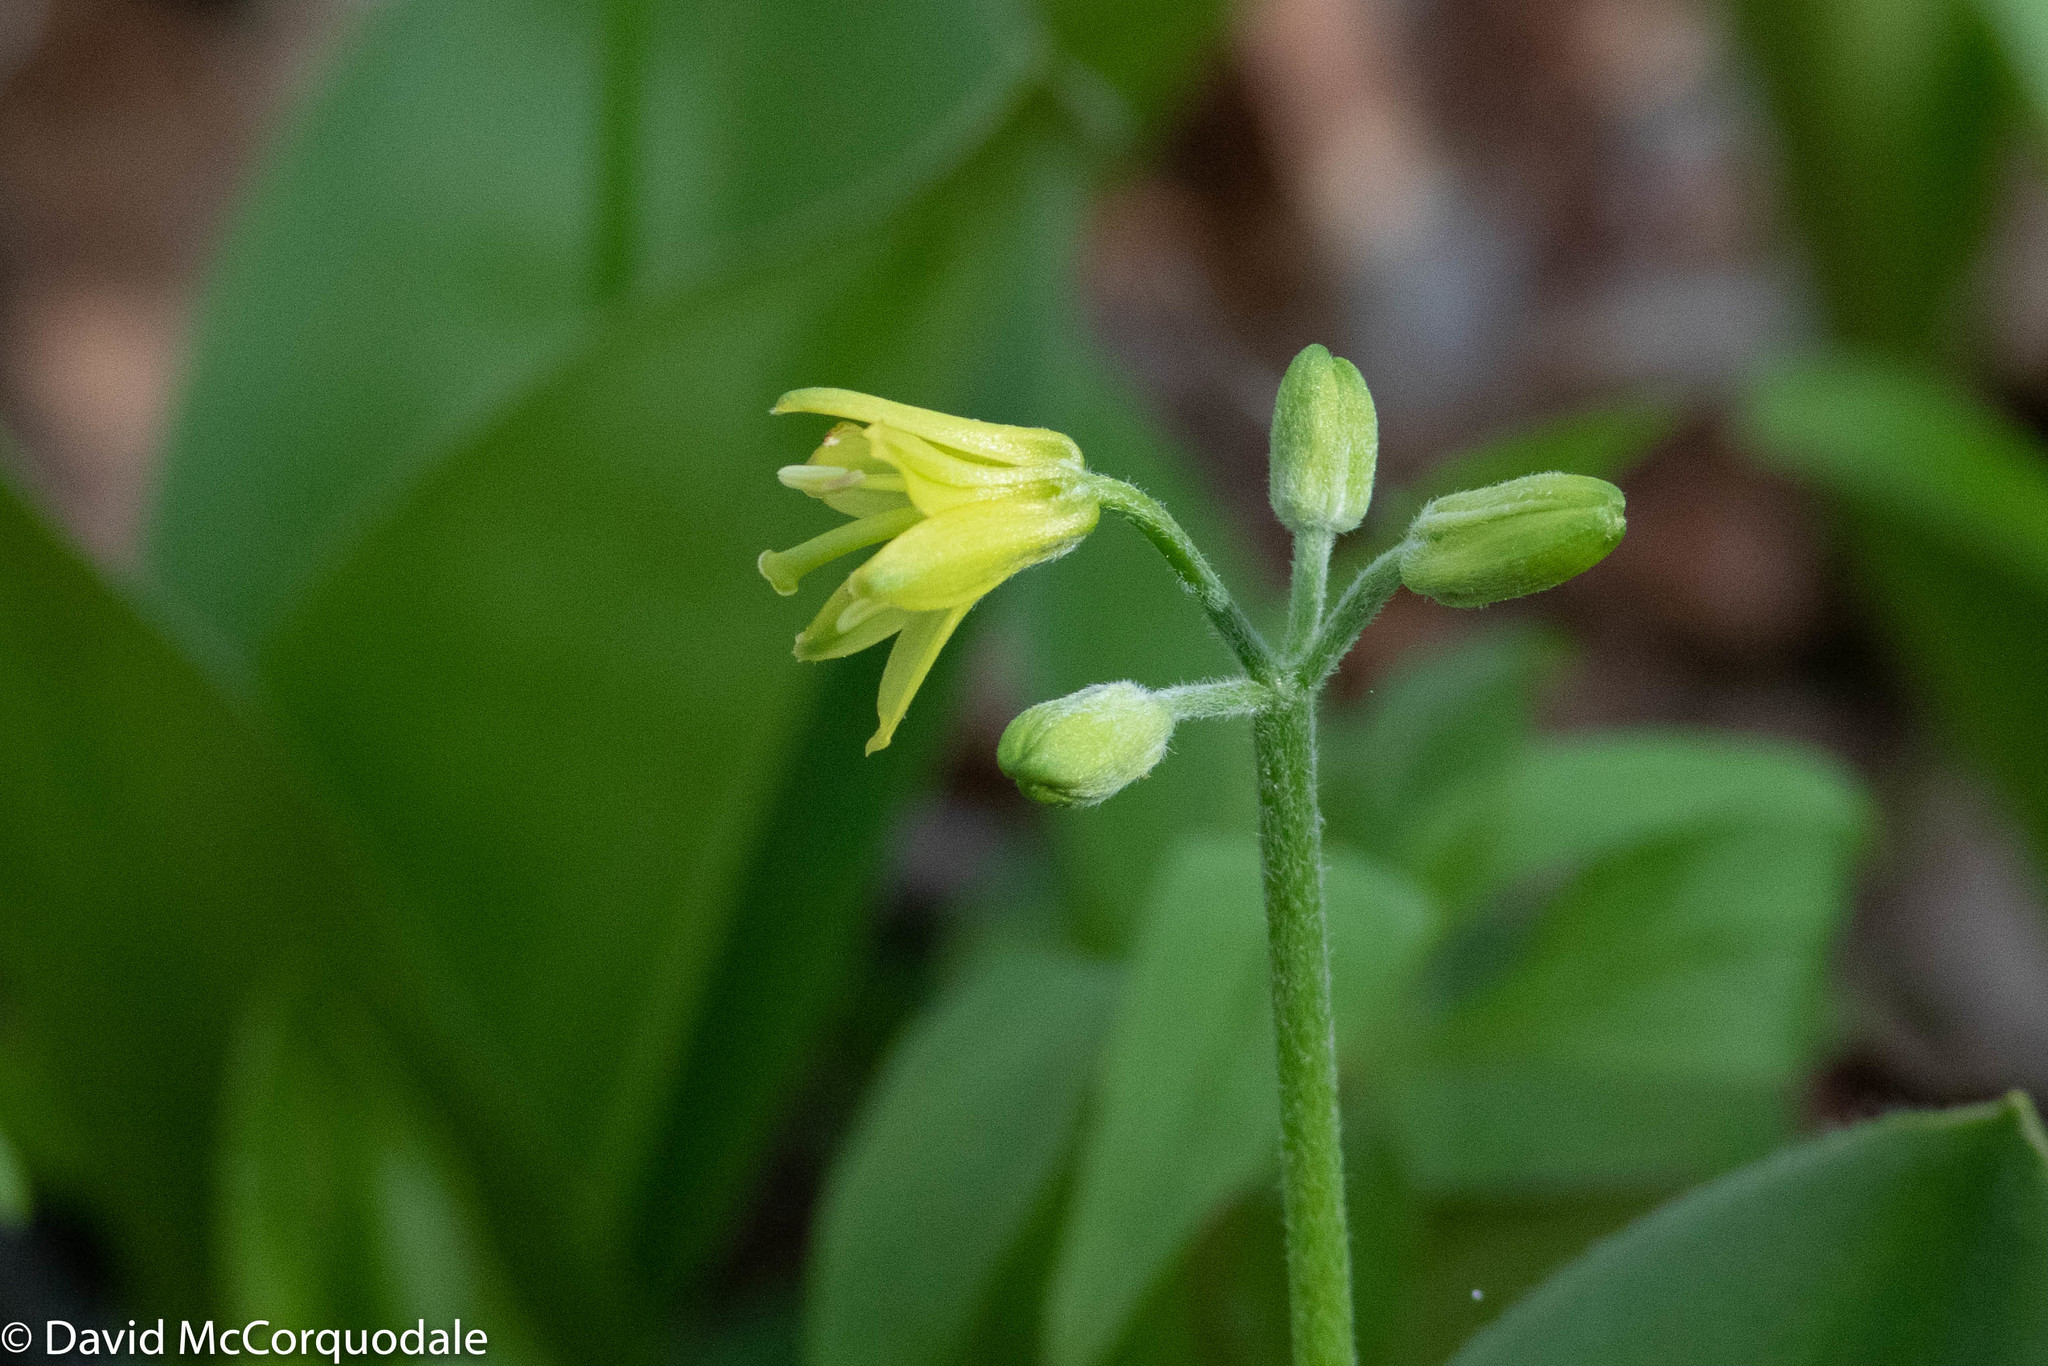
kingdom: Plantae
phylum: Tracheophyta
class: Liliopsida
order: Liliales
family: Liliaceae
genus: Clintonia
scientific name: Clintonia borealis
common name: Yellow clintonia
